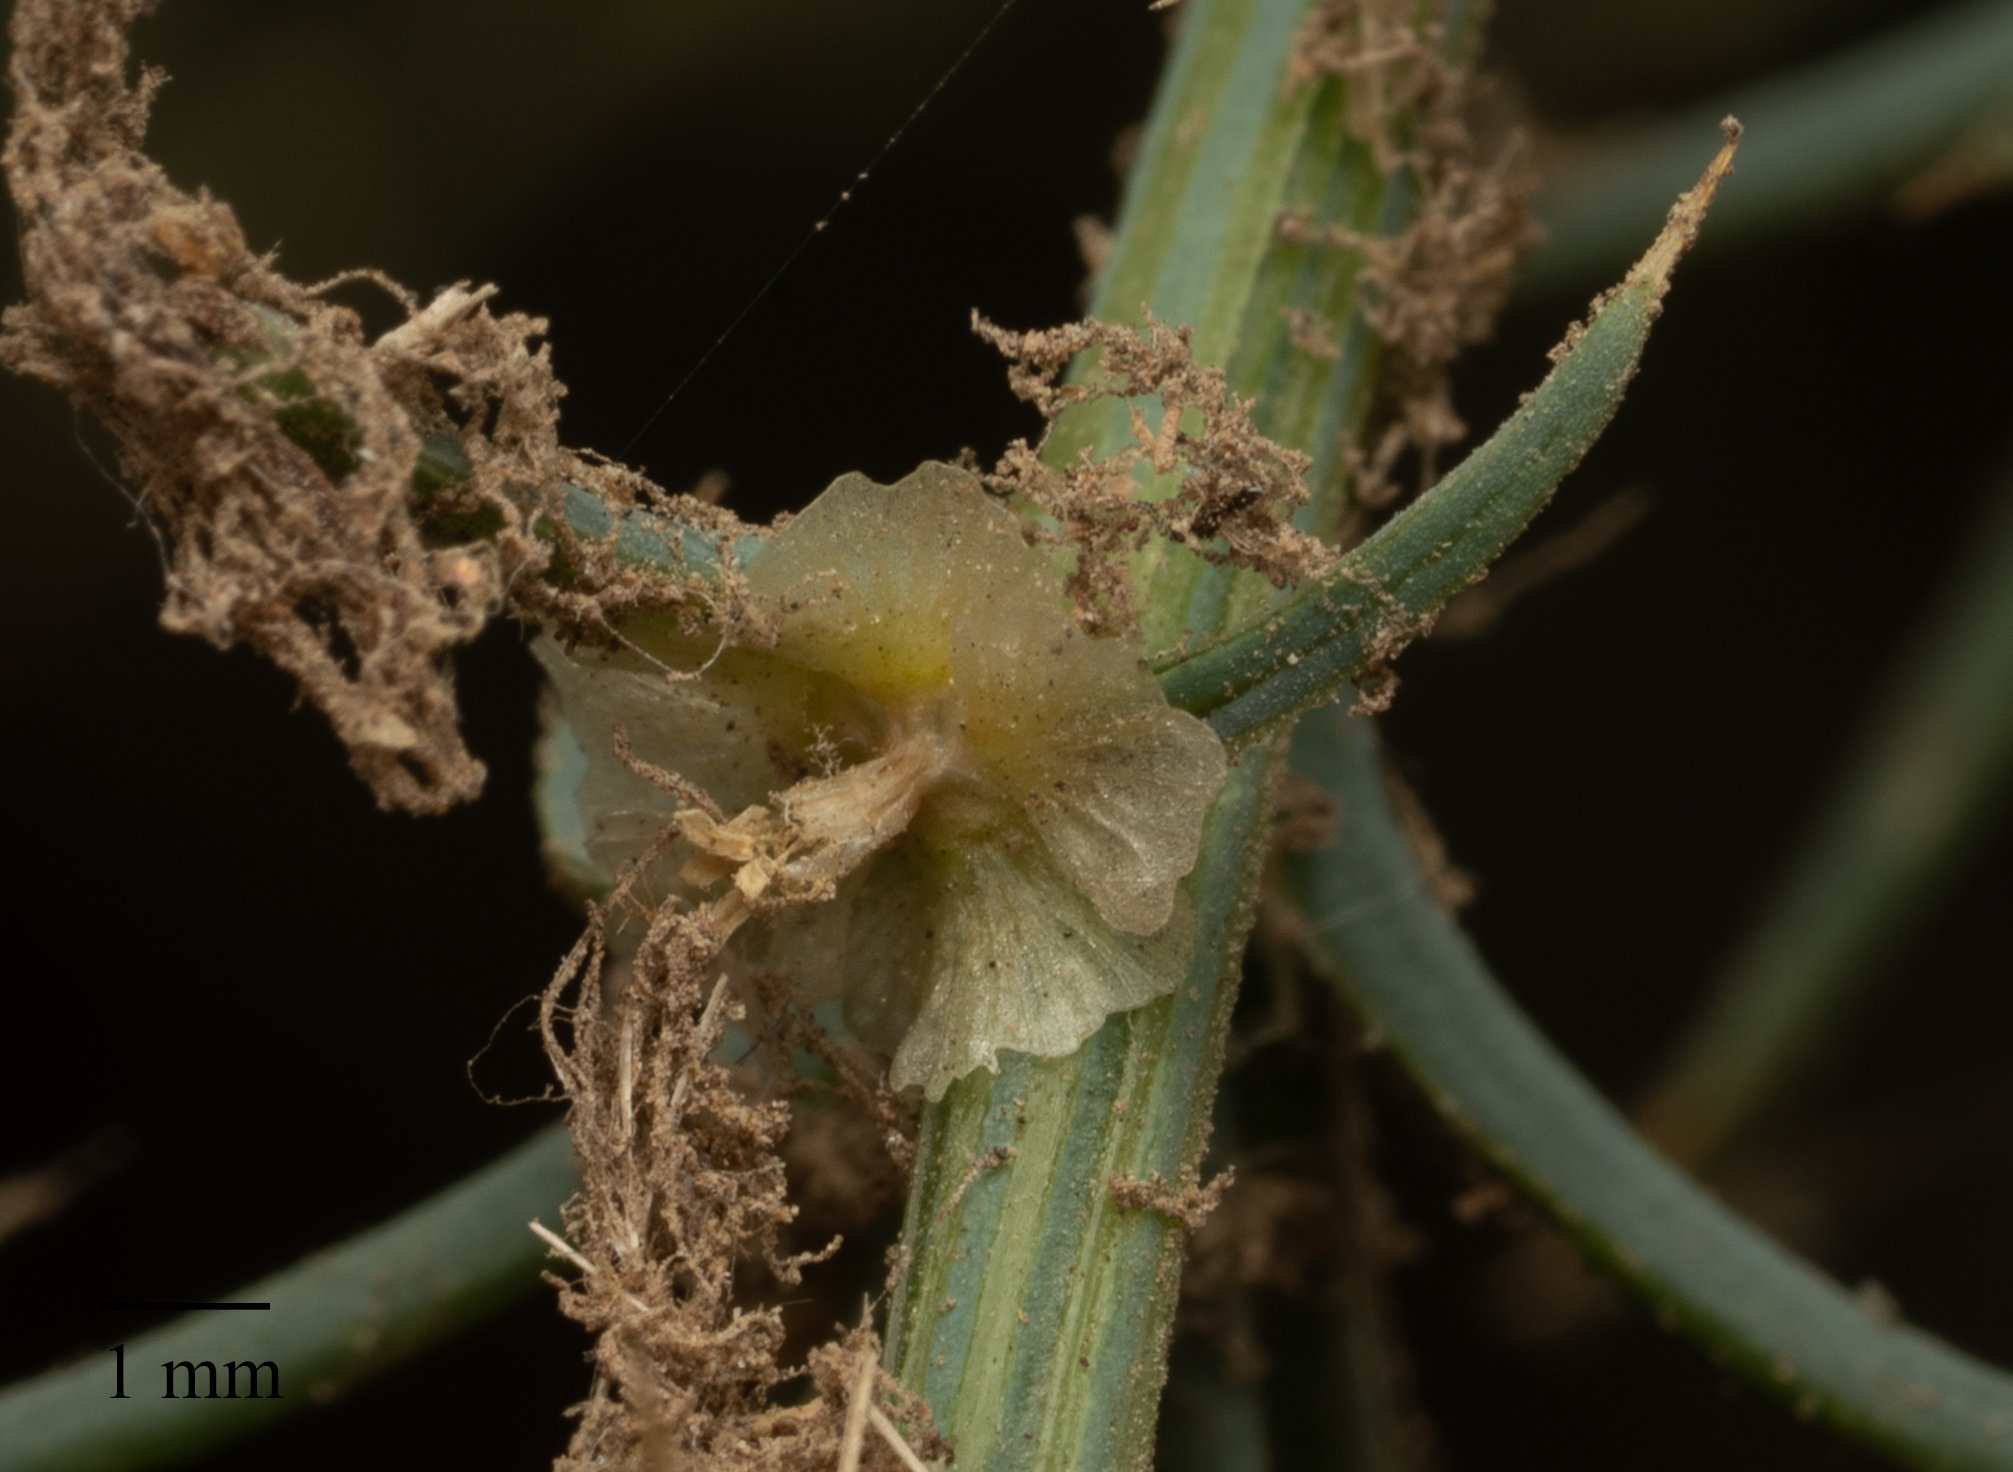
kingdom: Plantae
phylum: Tracheophyta
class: Magnoliopsida
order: Caryophyllales
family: Amaranthaceae
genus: Salsola
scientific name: Salsola australis
